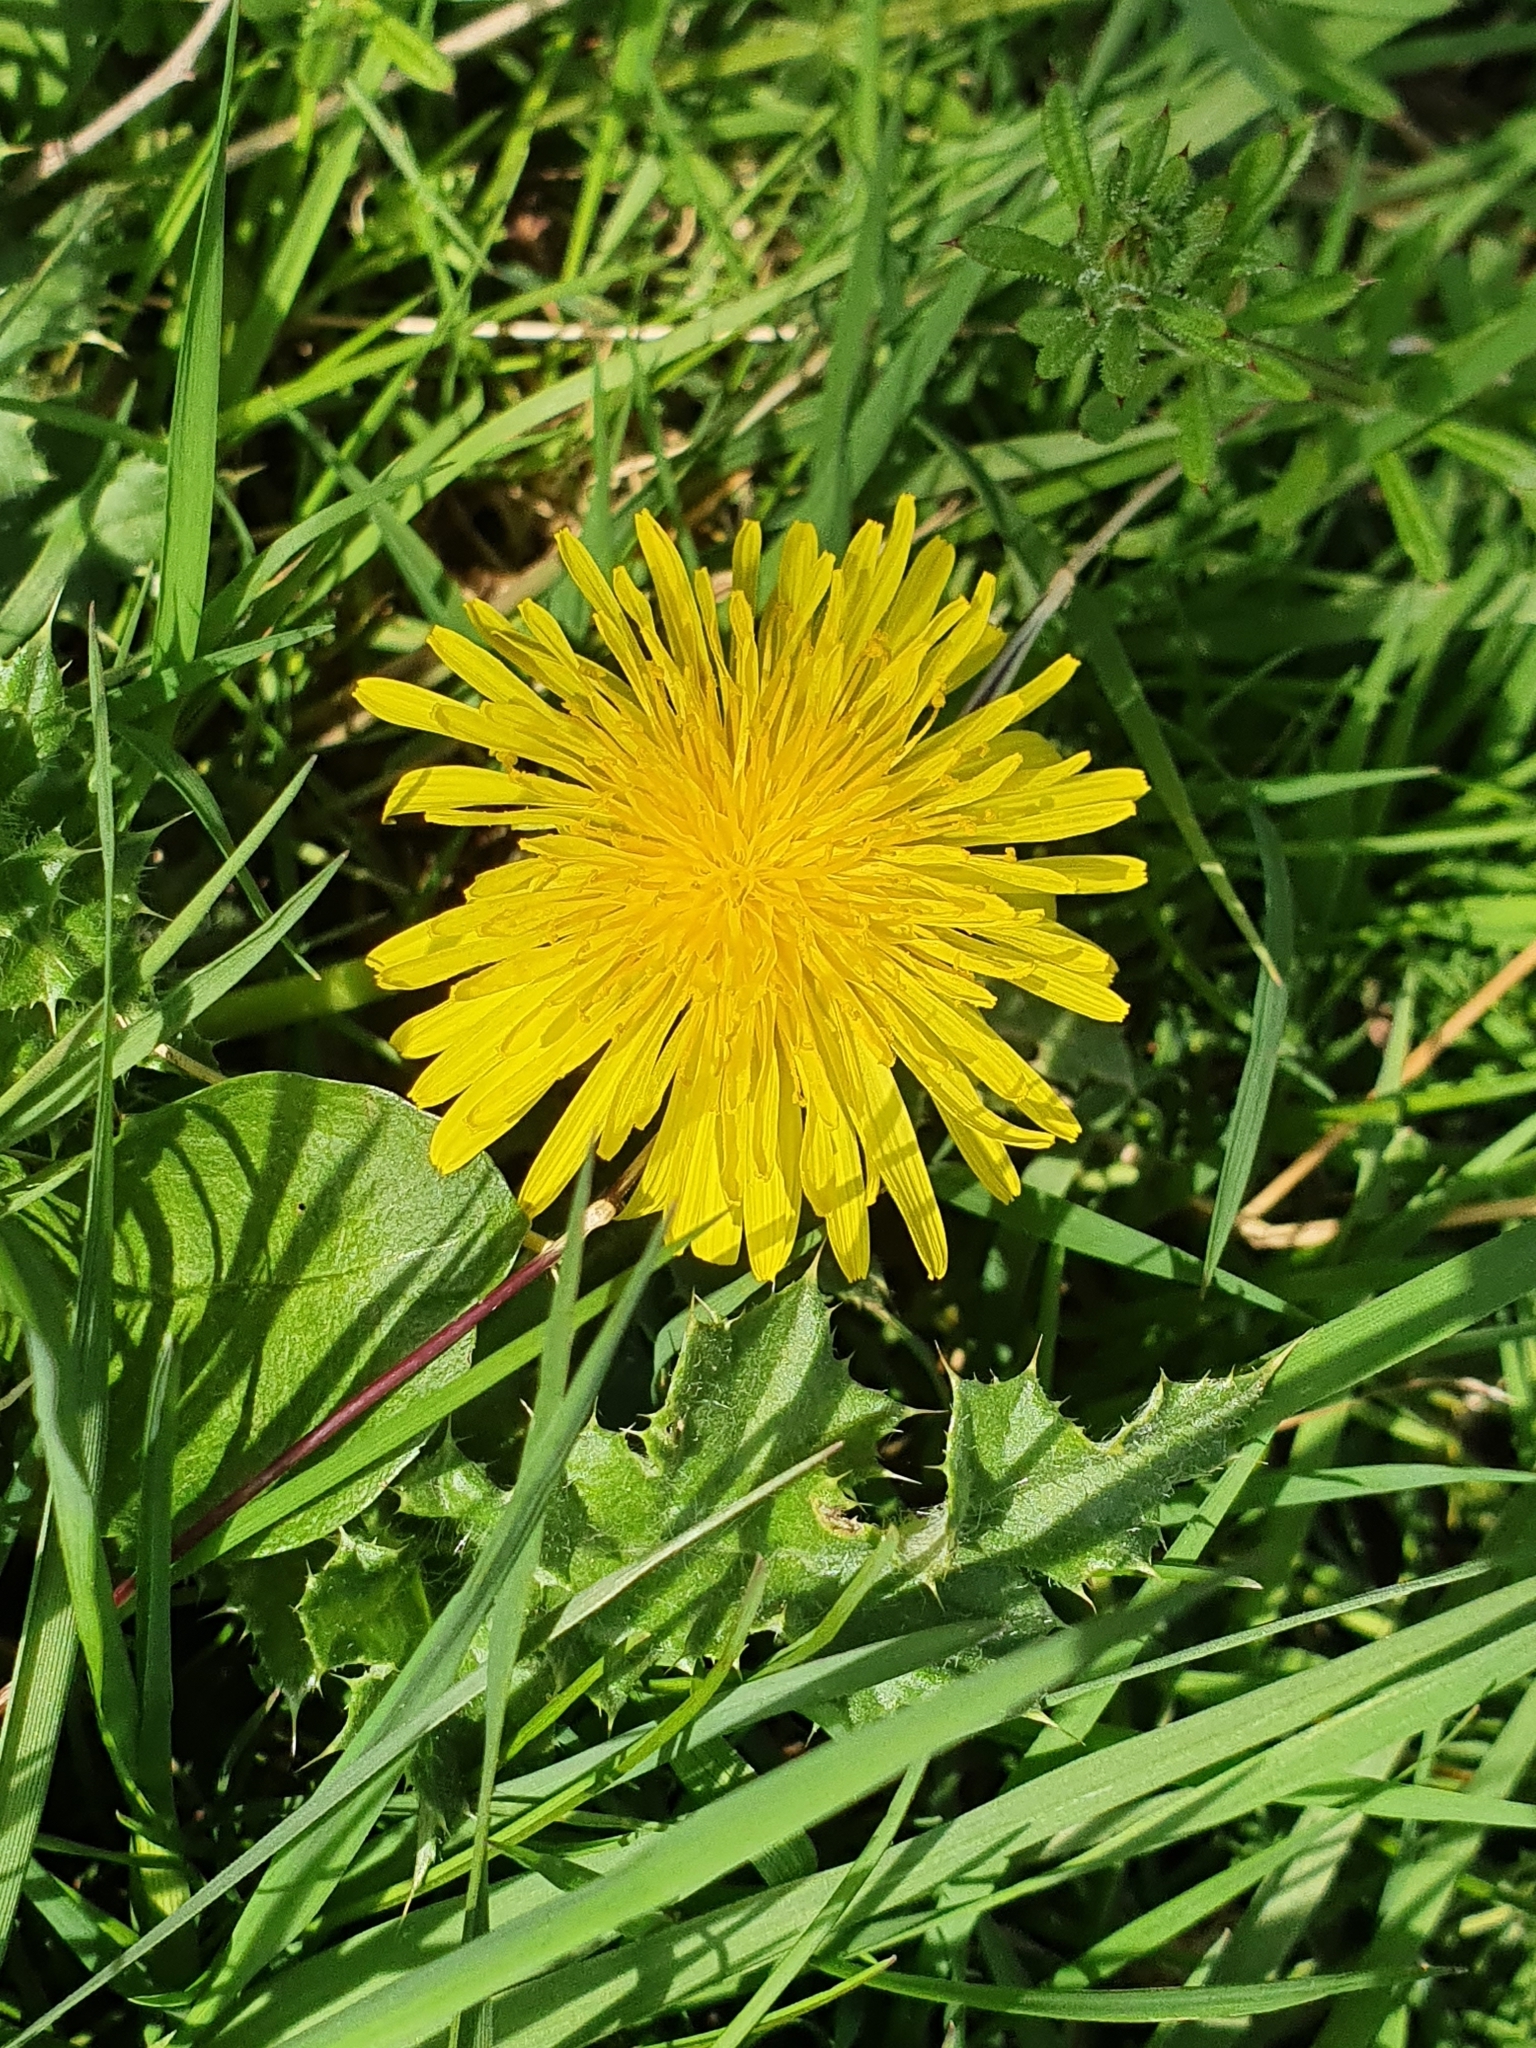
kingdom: Plantae
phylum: Tracheophyta
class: Magnoliopsida
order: Asterales
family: Asteraceae
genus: Taraxacum
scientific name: Taraxacum officinale
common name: Common dandelion
